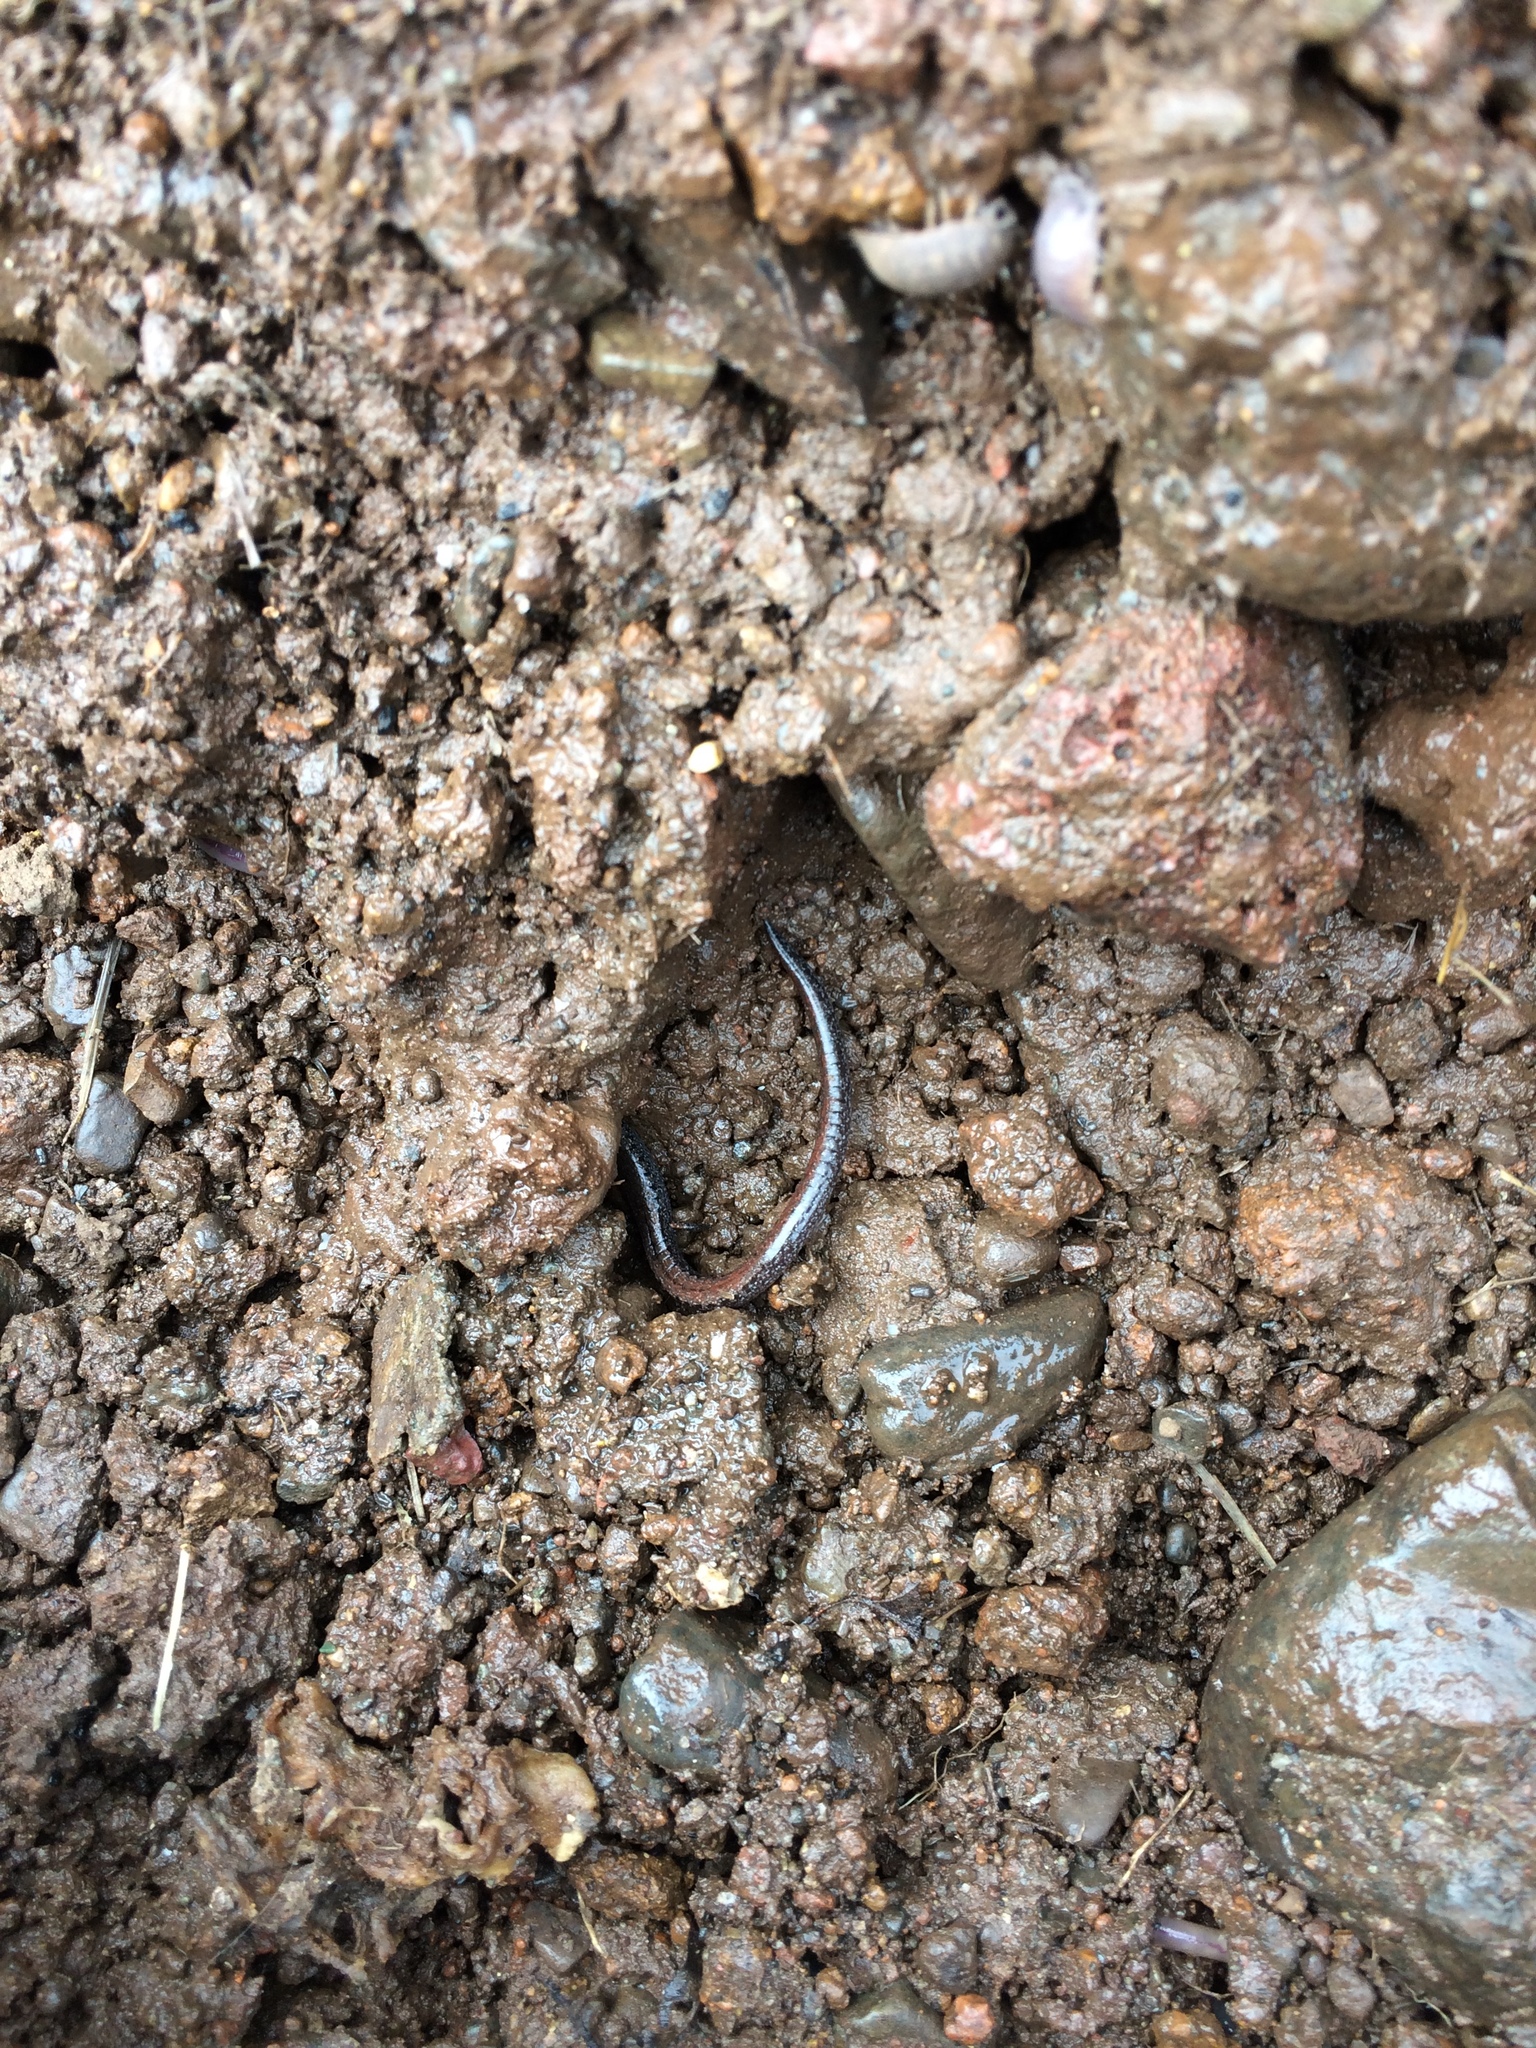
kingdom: Animalia
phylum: Chordata
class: Amphibia
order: Caudata
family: Plethodontidae
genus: Batrachoseps
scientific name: Batrachoseps attenuatus
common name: California slender salamander
